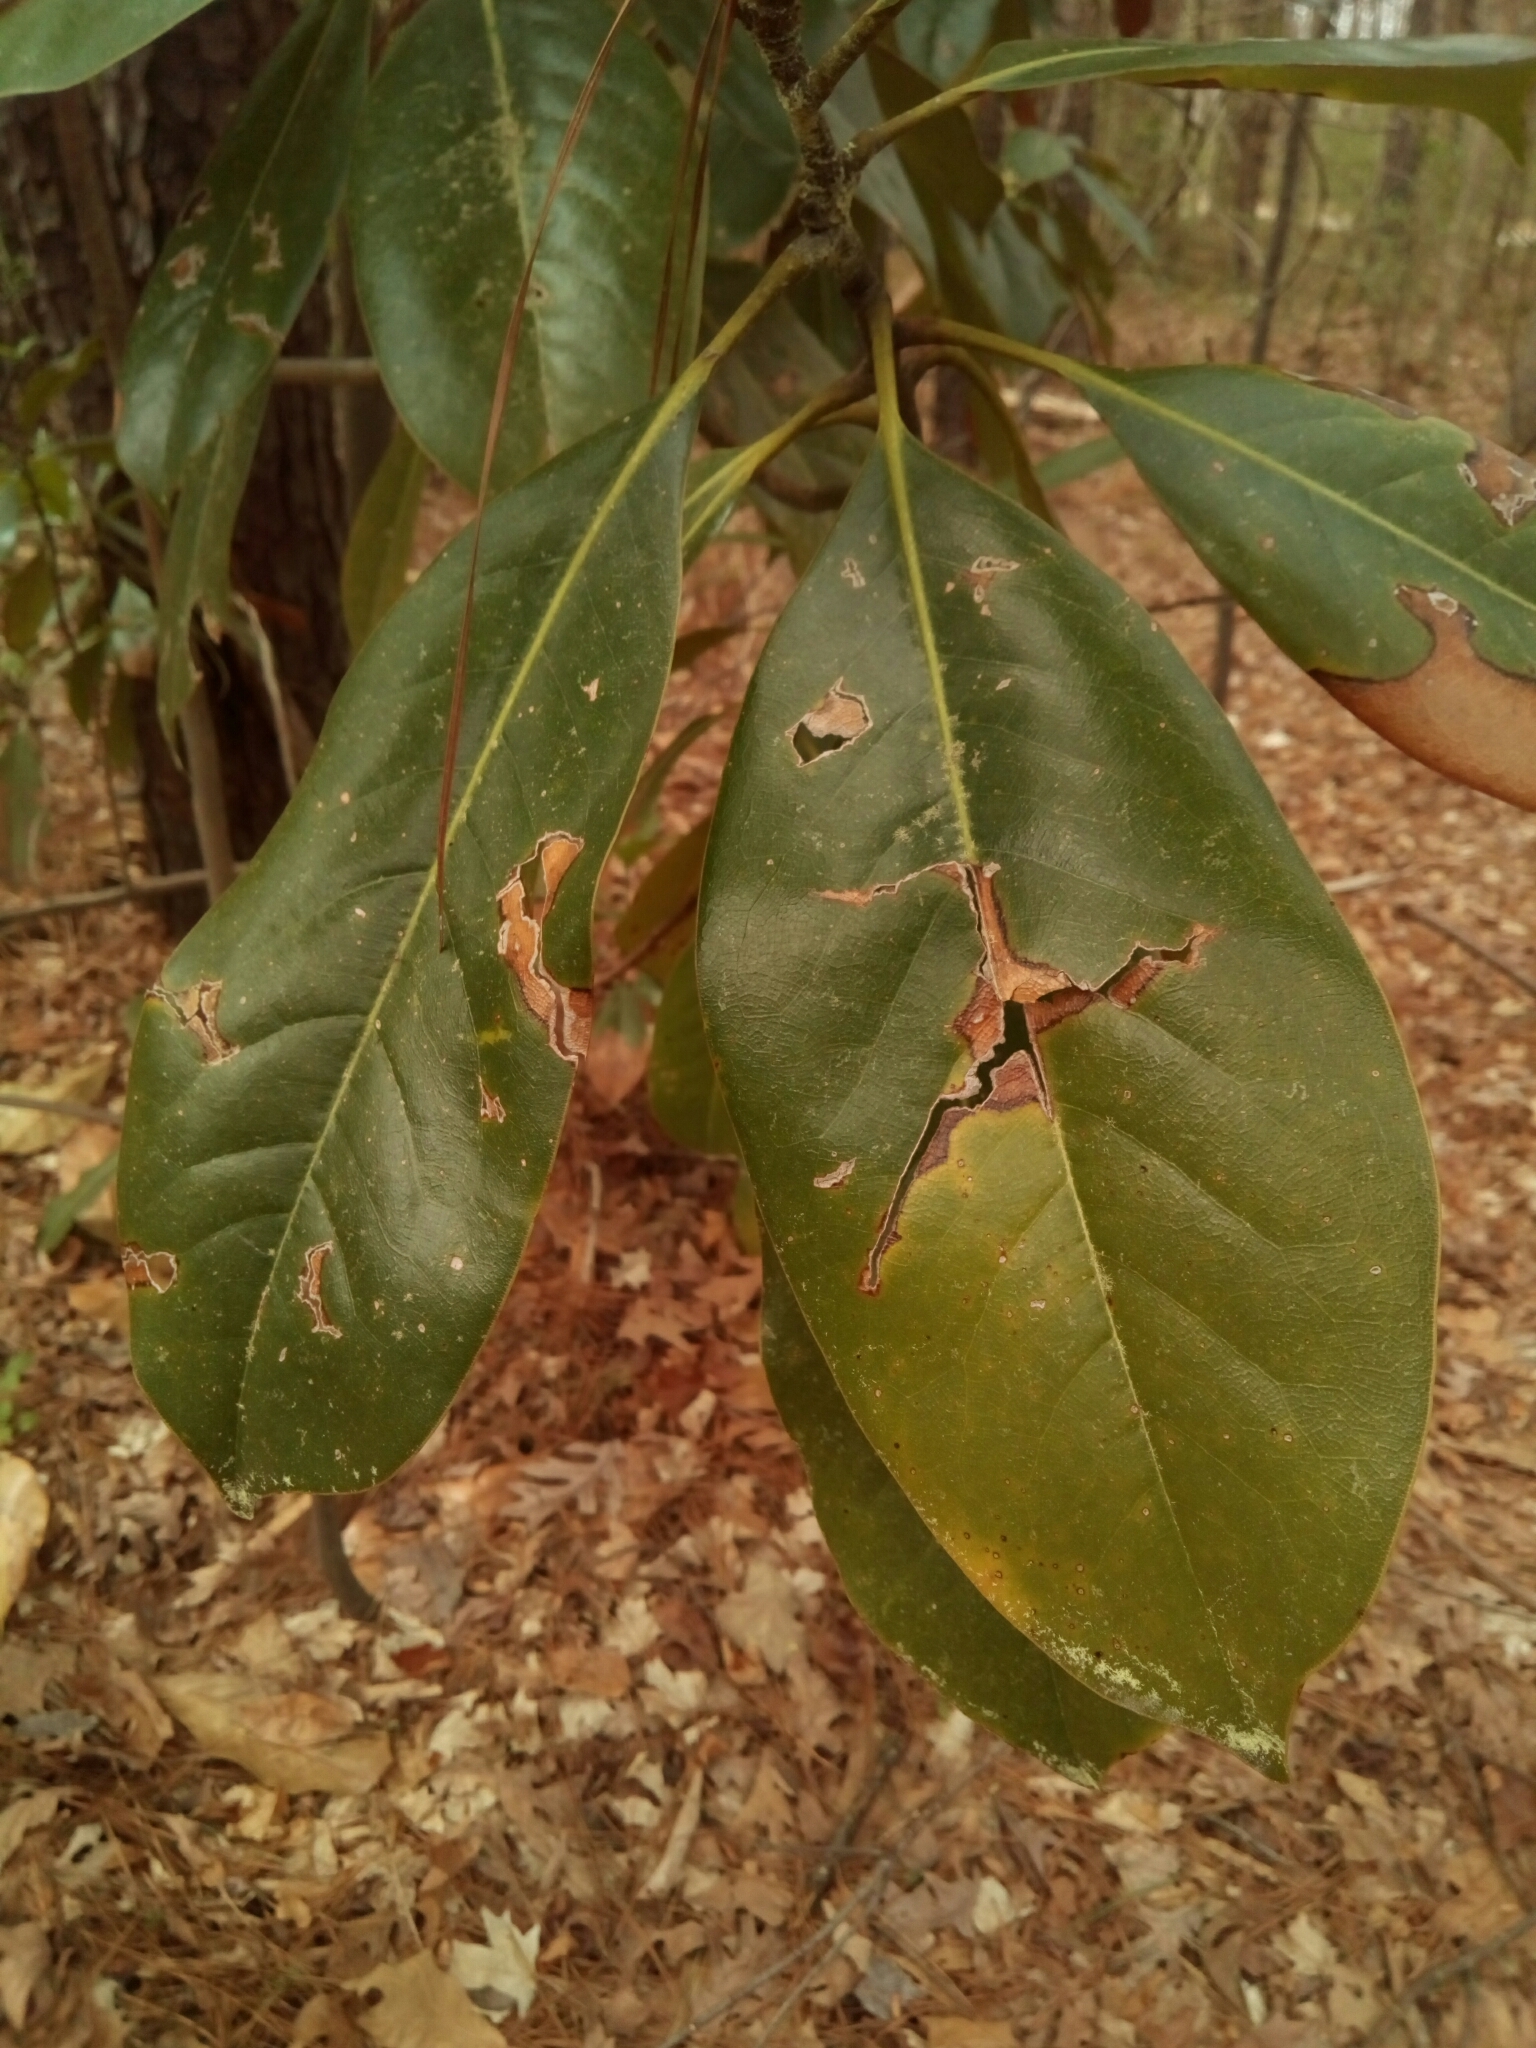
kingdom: Plantae
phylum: Tracheophyta
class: Magnoliopsida
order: Magnoliales
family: Magnoliaceae
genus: Magnolia
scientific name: Magnolia grandiflora
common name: Southern magnolia
